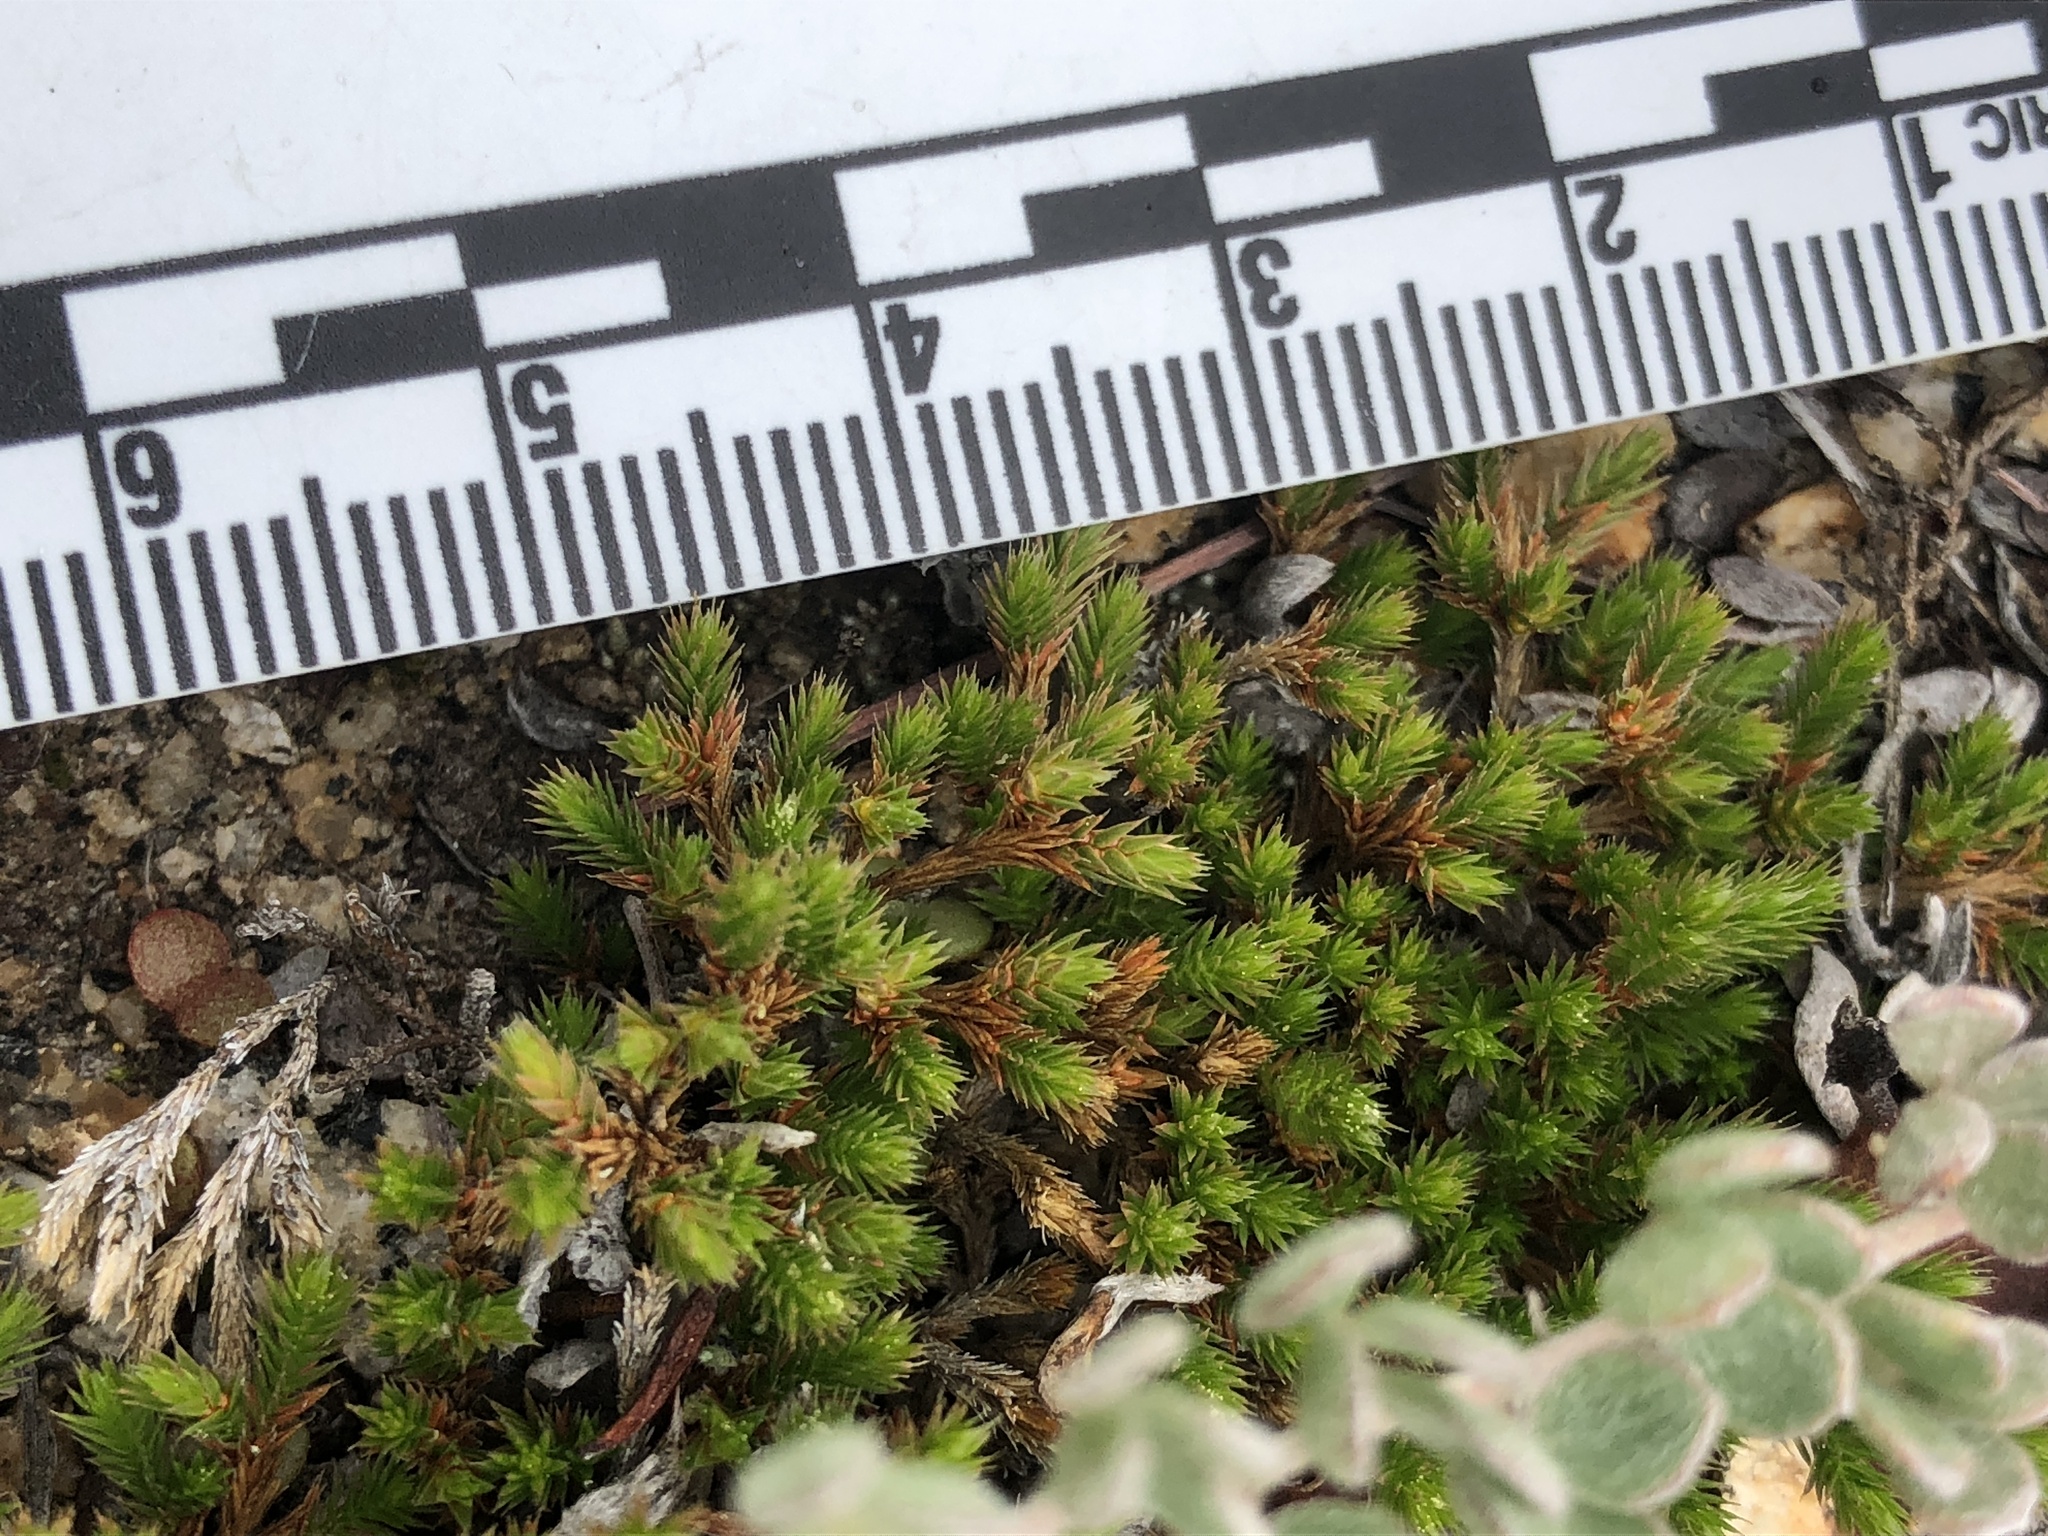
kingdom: Plantae
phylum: Tracheophyta
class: Lycopodiopsida
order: Selaginellales
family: Selaginellaceae
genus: Selaginella
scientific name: Selaginella bigelovii
